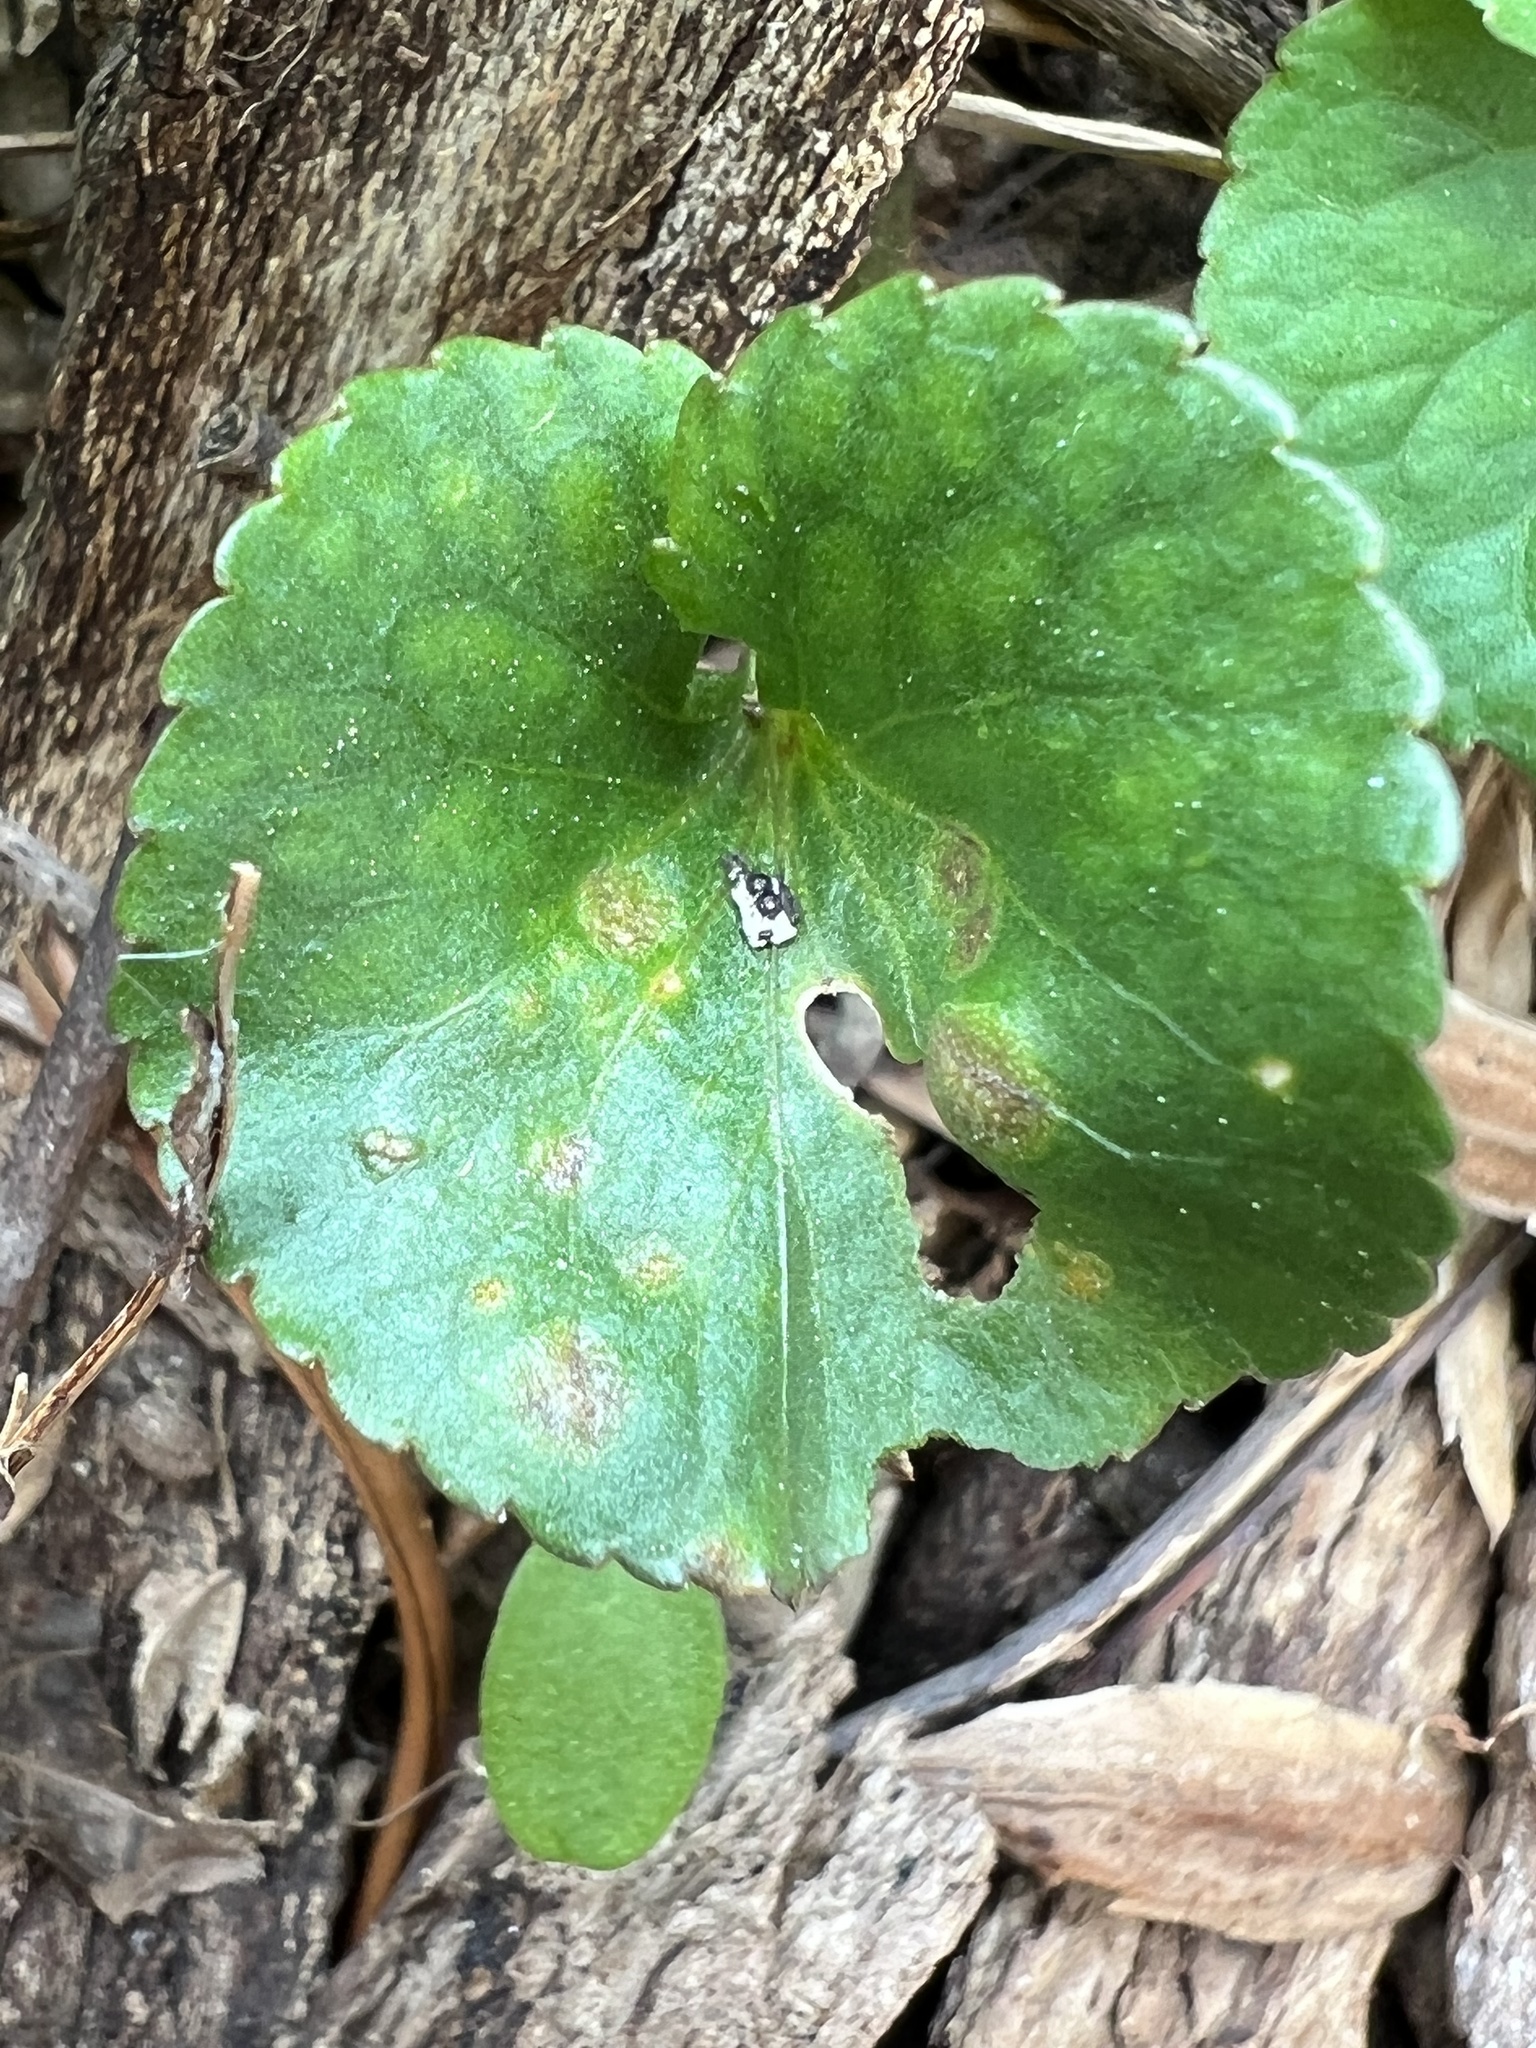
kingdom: Fungi
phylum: Basidiomycota
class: Pucciniomycetes
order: Pucciniales
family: Pucciniaceae
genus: Puccinia
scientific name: Puccinia violae
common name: Violet rust
